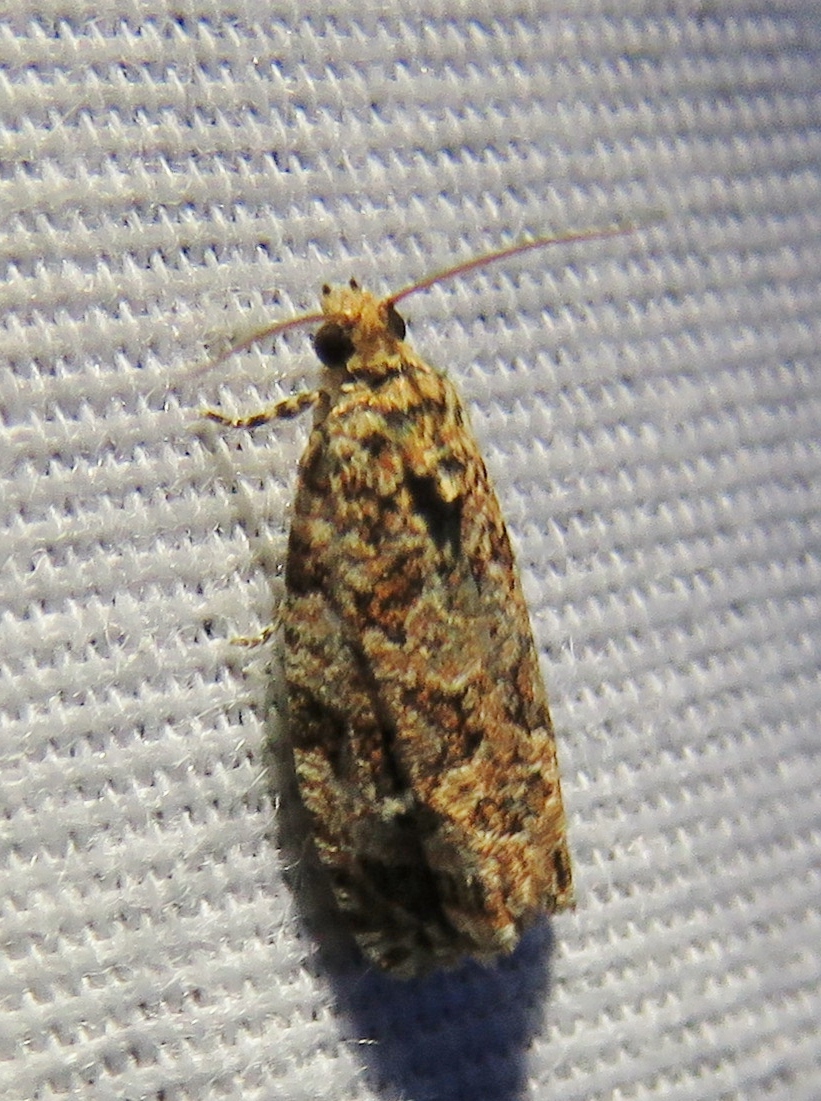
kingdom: Animalia
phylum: Arthropoda
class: Insecta
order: Lepidoptera
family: Tortricidae
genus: Phaecasiophora
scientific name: Phaecasiophora niveiguttana
